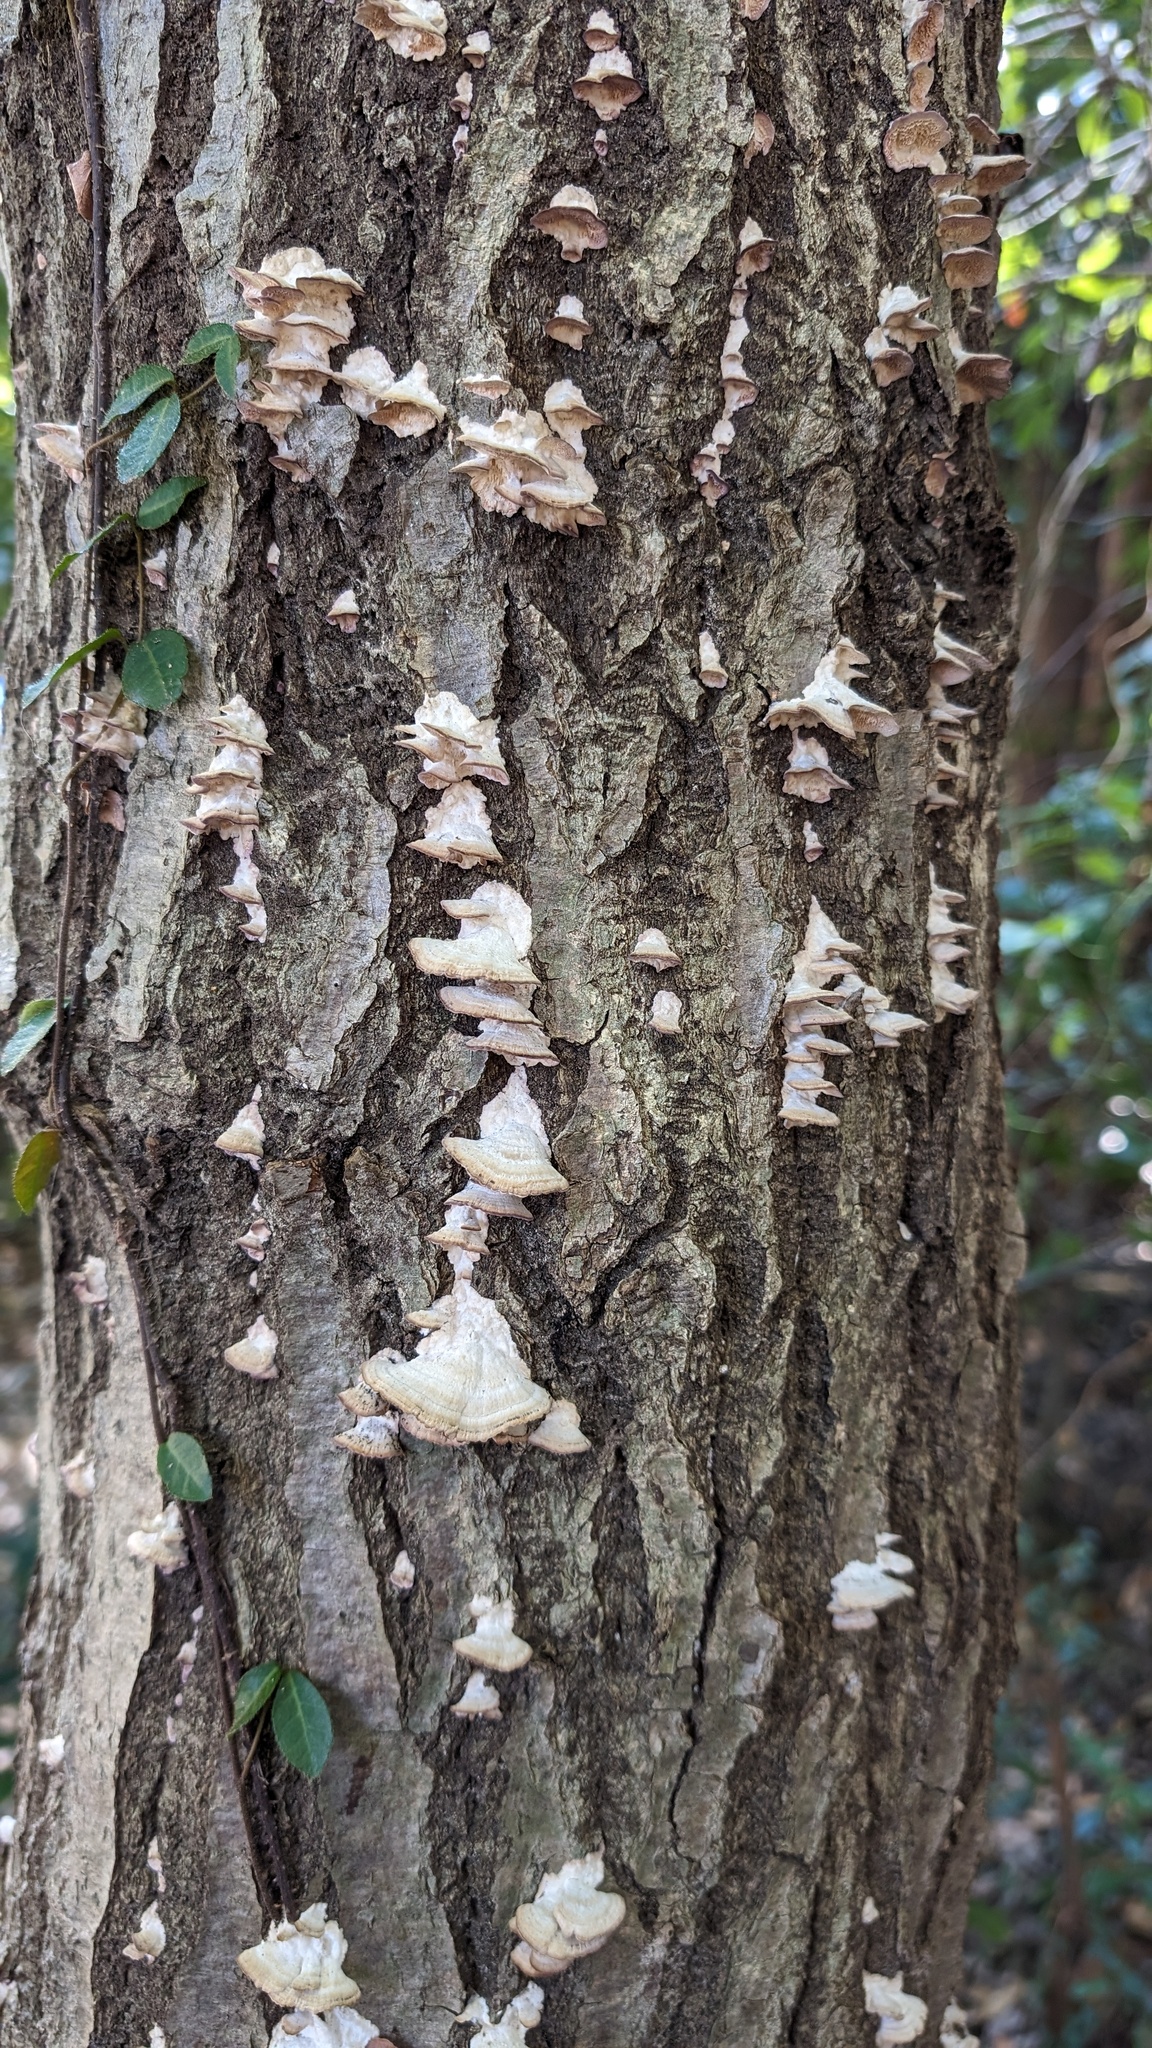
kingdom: Fungi
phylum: Basidiomycota
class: Agaricomycetes
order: Hymenochaetales
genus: Trichaptum
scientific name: Trichaptum biforme
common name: Violet-toothed polypore
